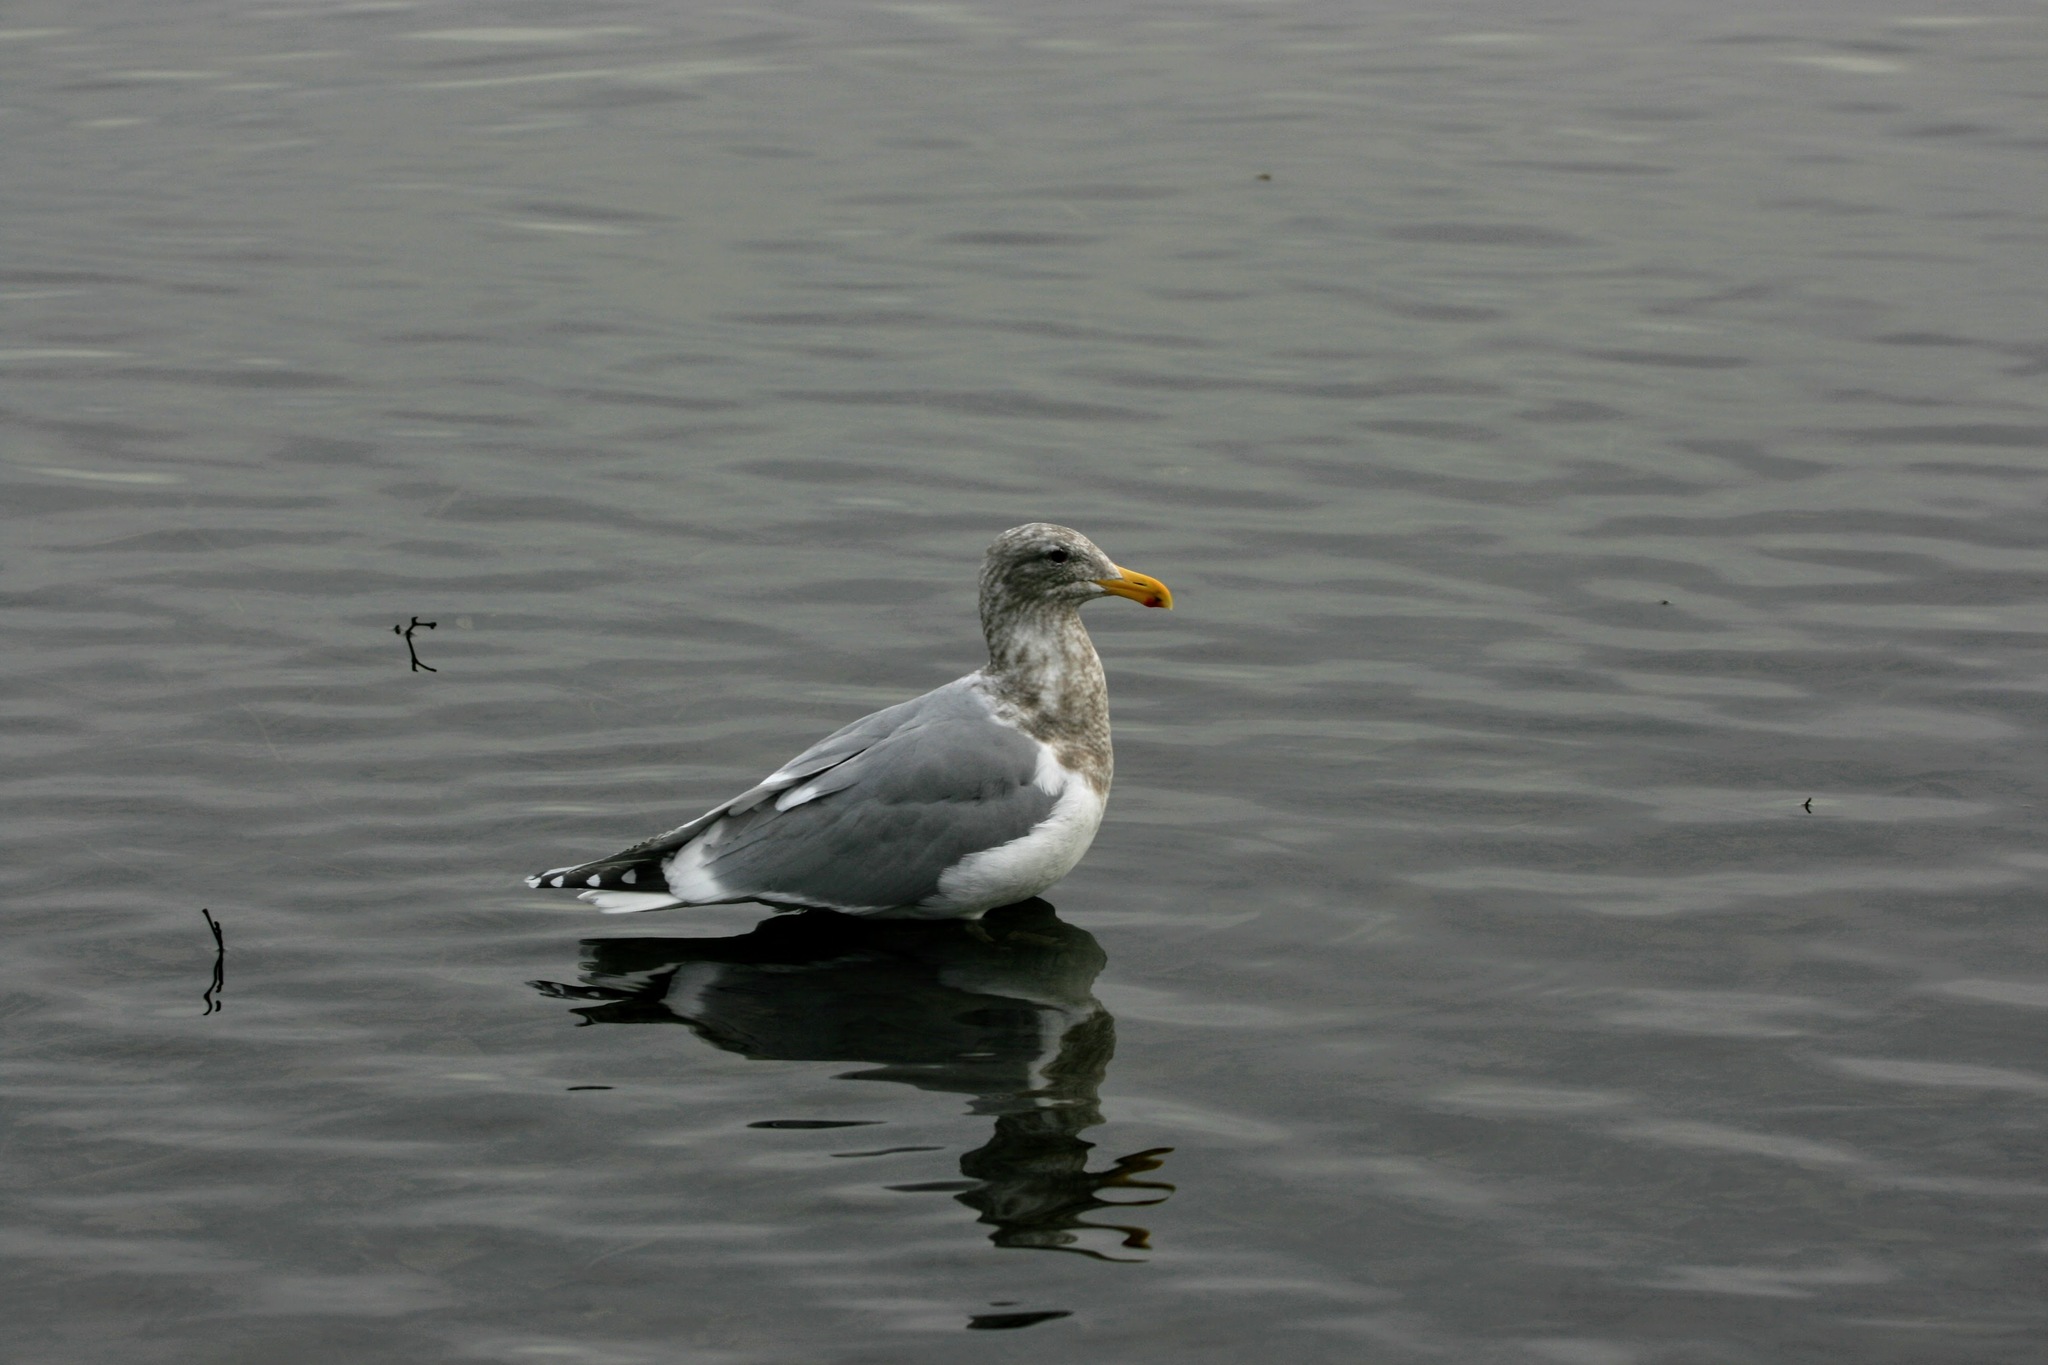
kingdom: Animalia
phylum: Chordata
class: Aves
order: Charadriiformes
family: Laridae
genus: Larus
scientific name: Larus
